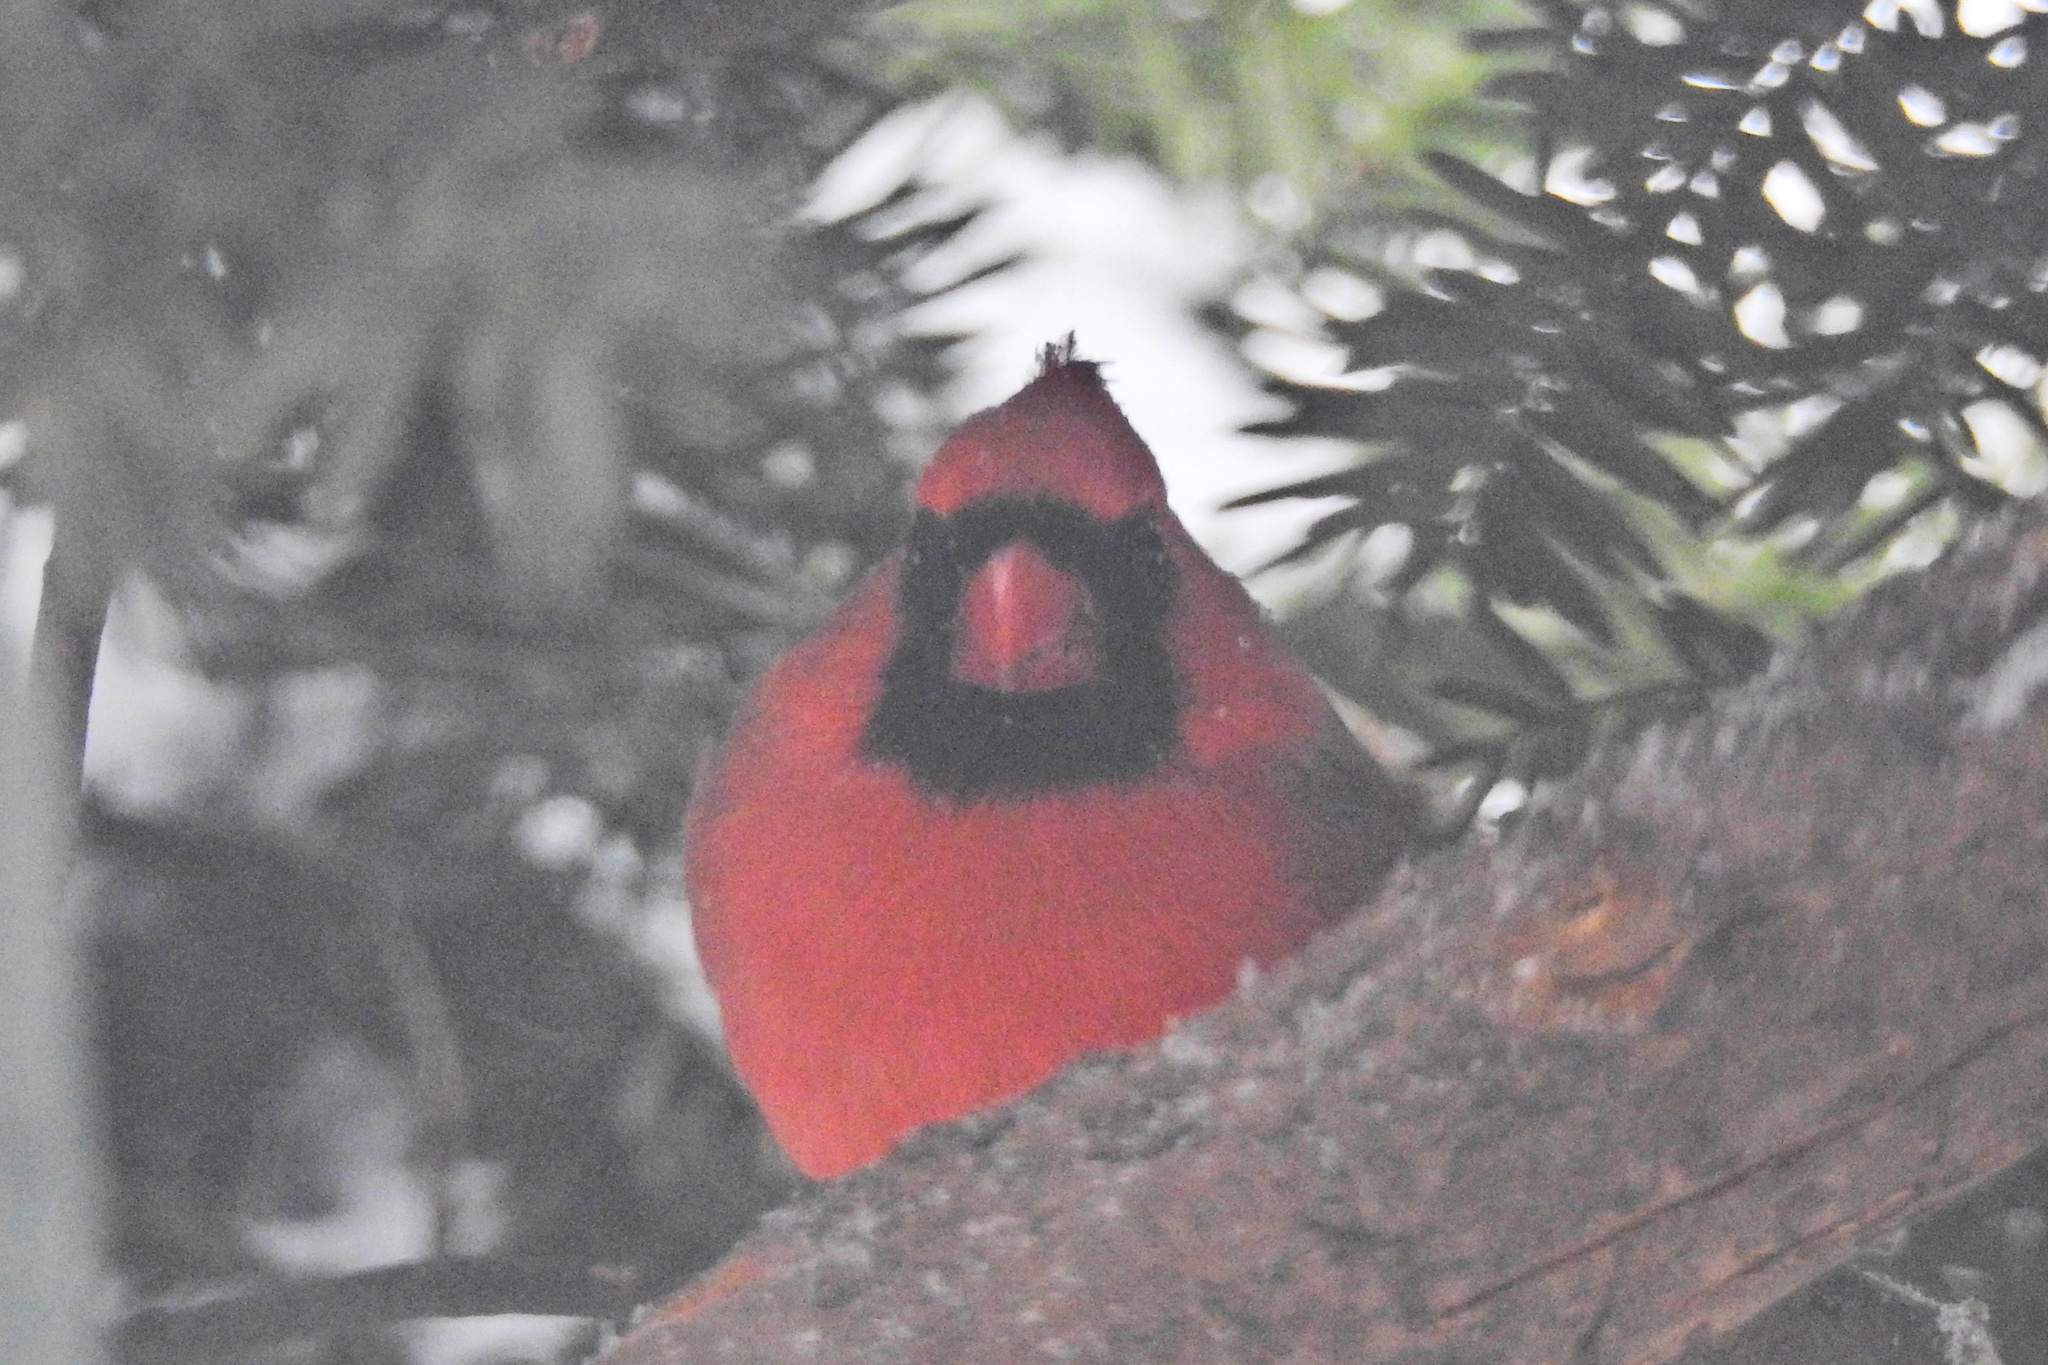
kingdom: Animalia
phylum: Chordata
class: Aves
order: Passeriformes
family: Cardinalidae
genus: Cardinalis
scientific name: Cardinalis cardinalis
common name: Northern cardinal
